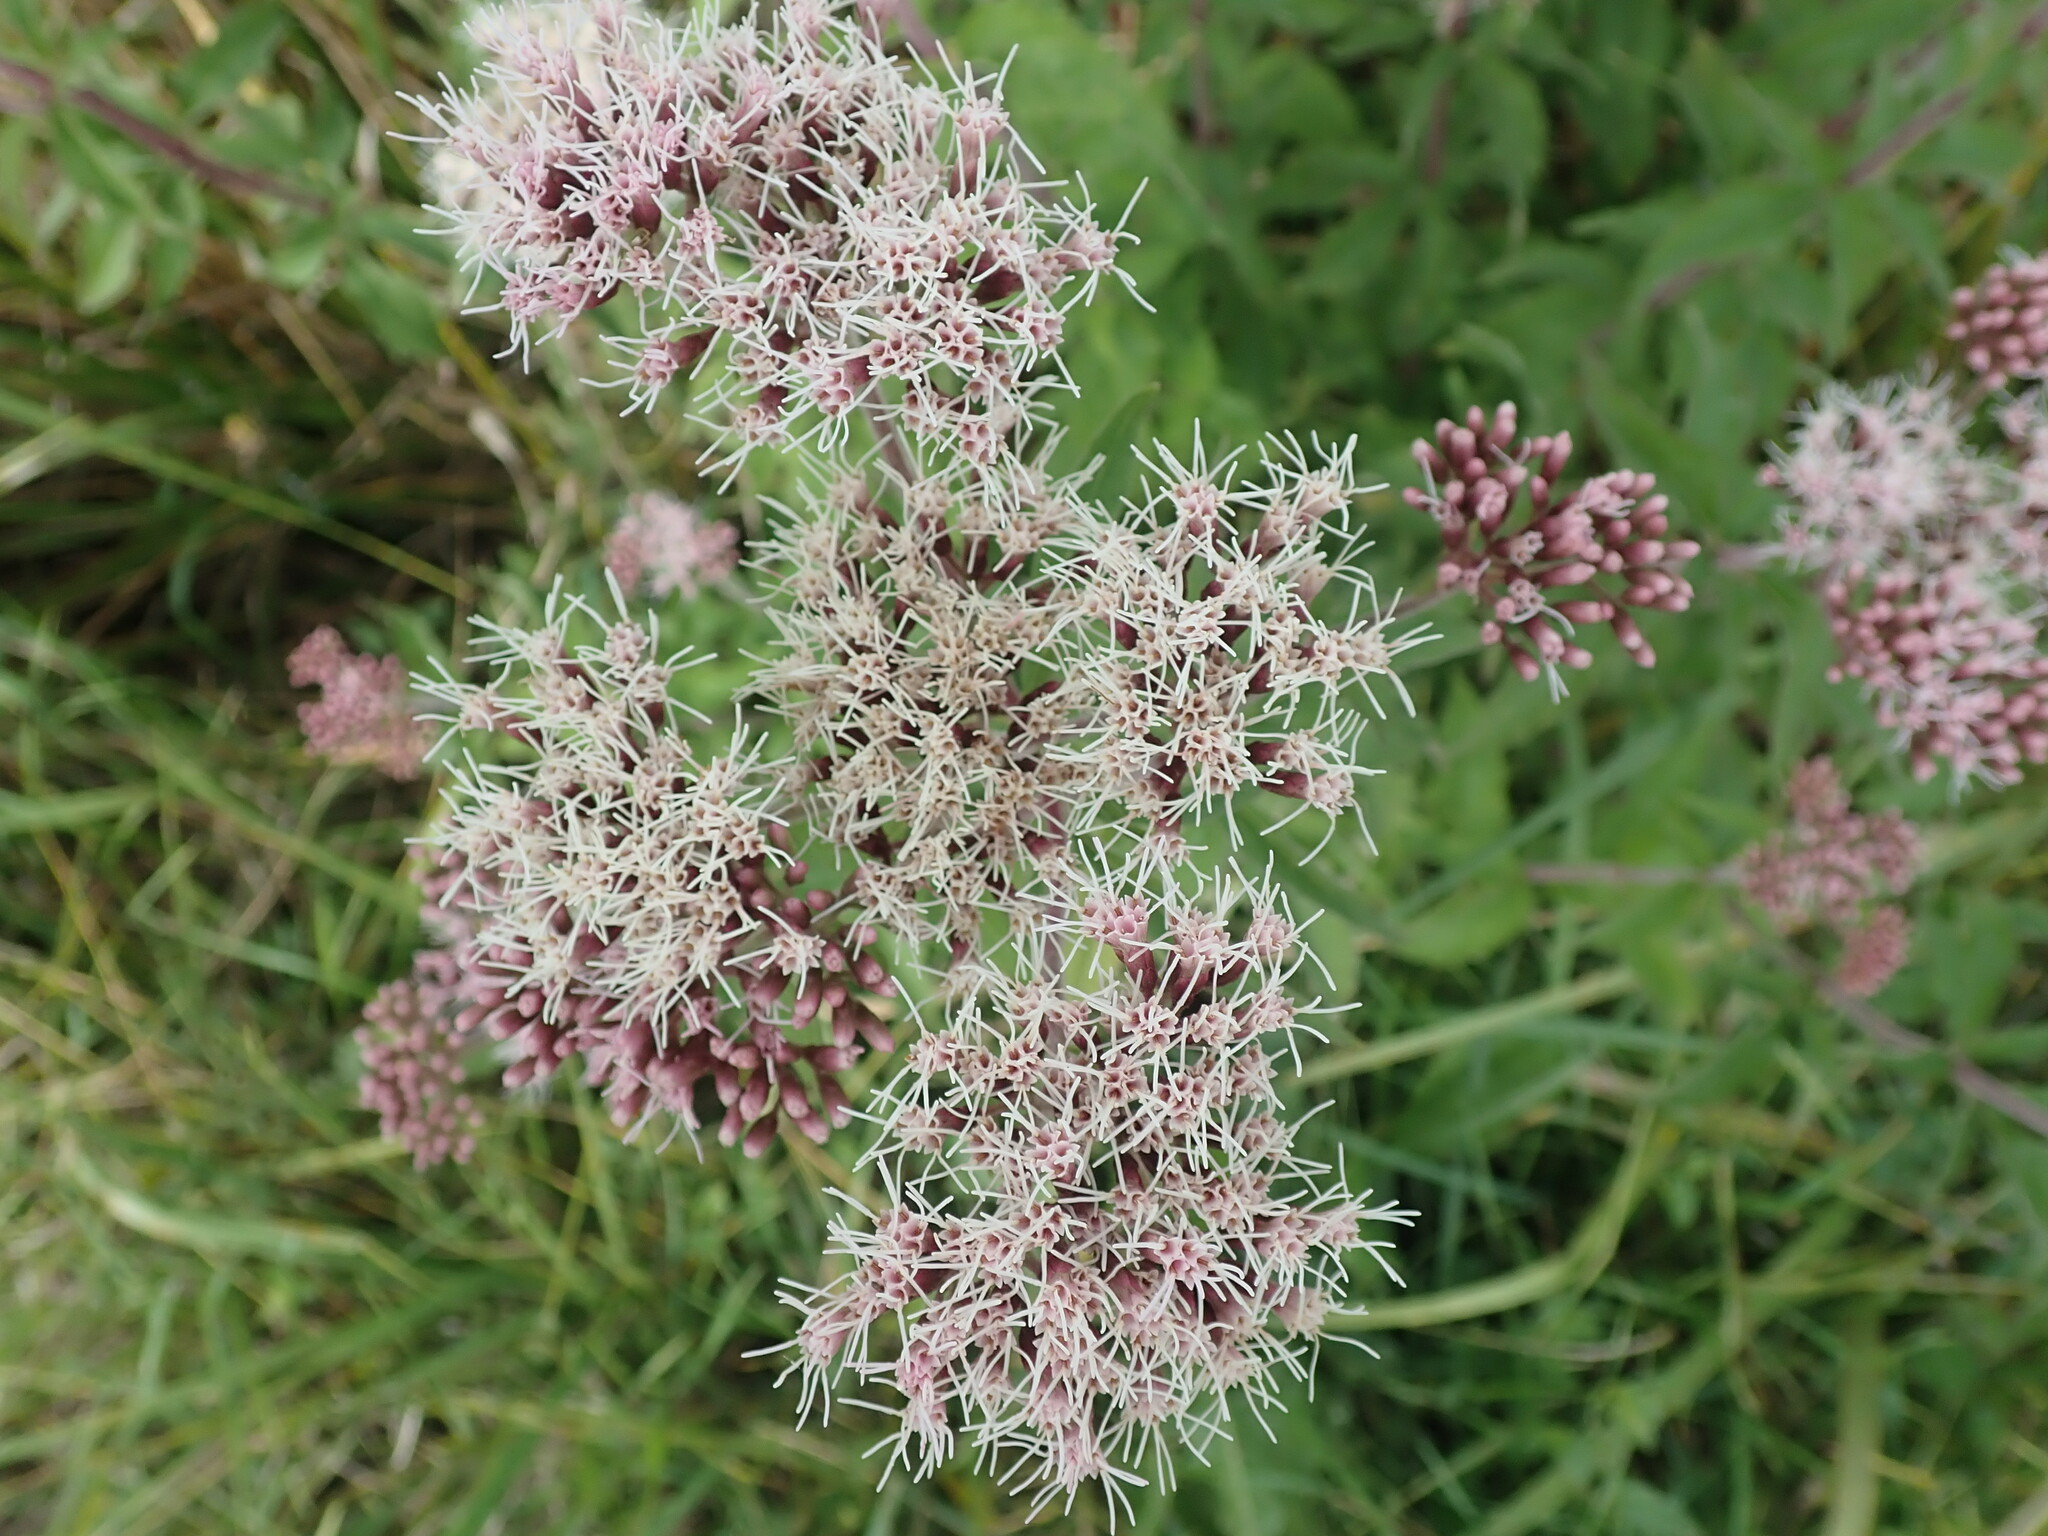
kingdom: Plantae
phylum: Tracheophyta
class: Magnoliopsida
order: Asterales
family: Asteraceae
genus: Eupatorium
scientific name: Eupatorium cannabinum
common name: Hemp-agrimony
